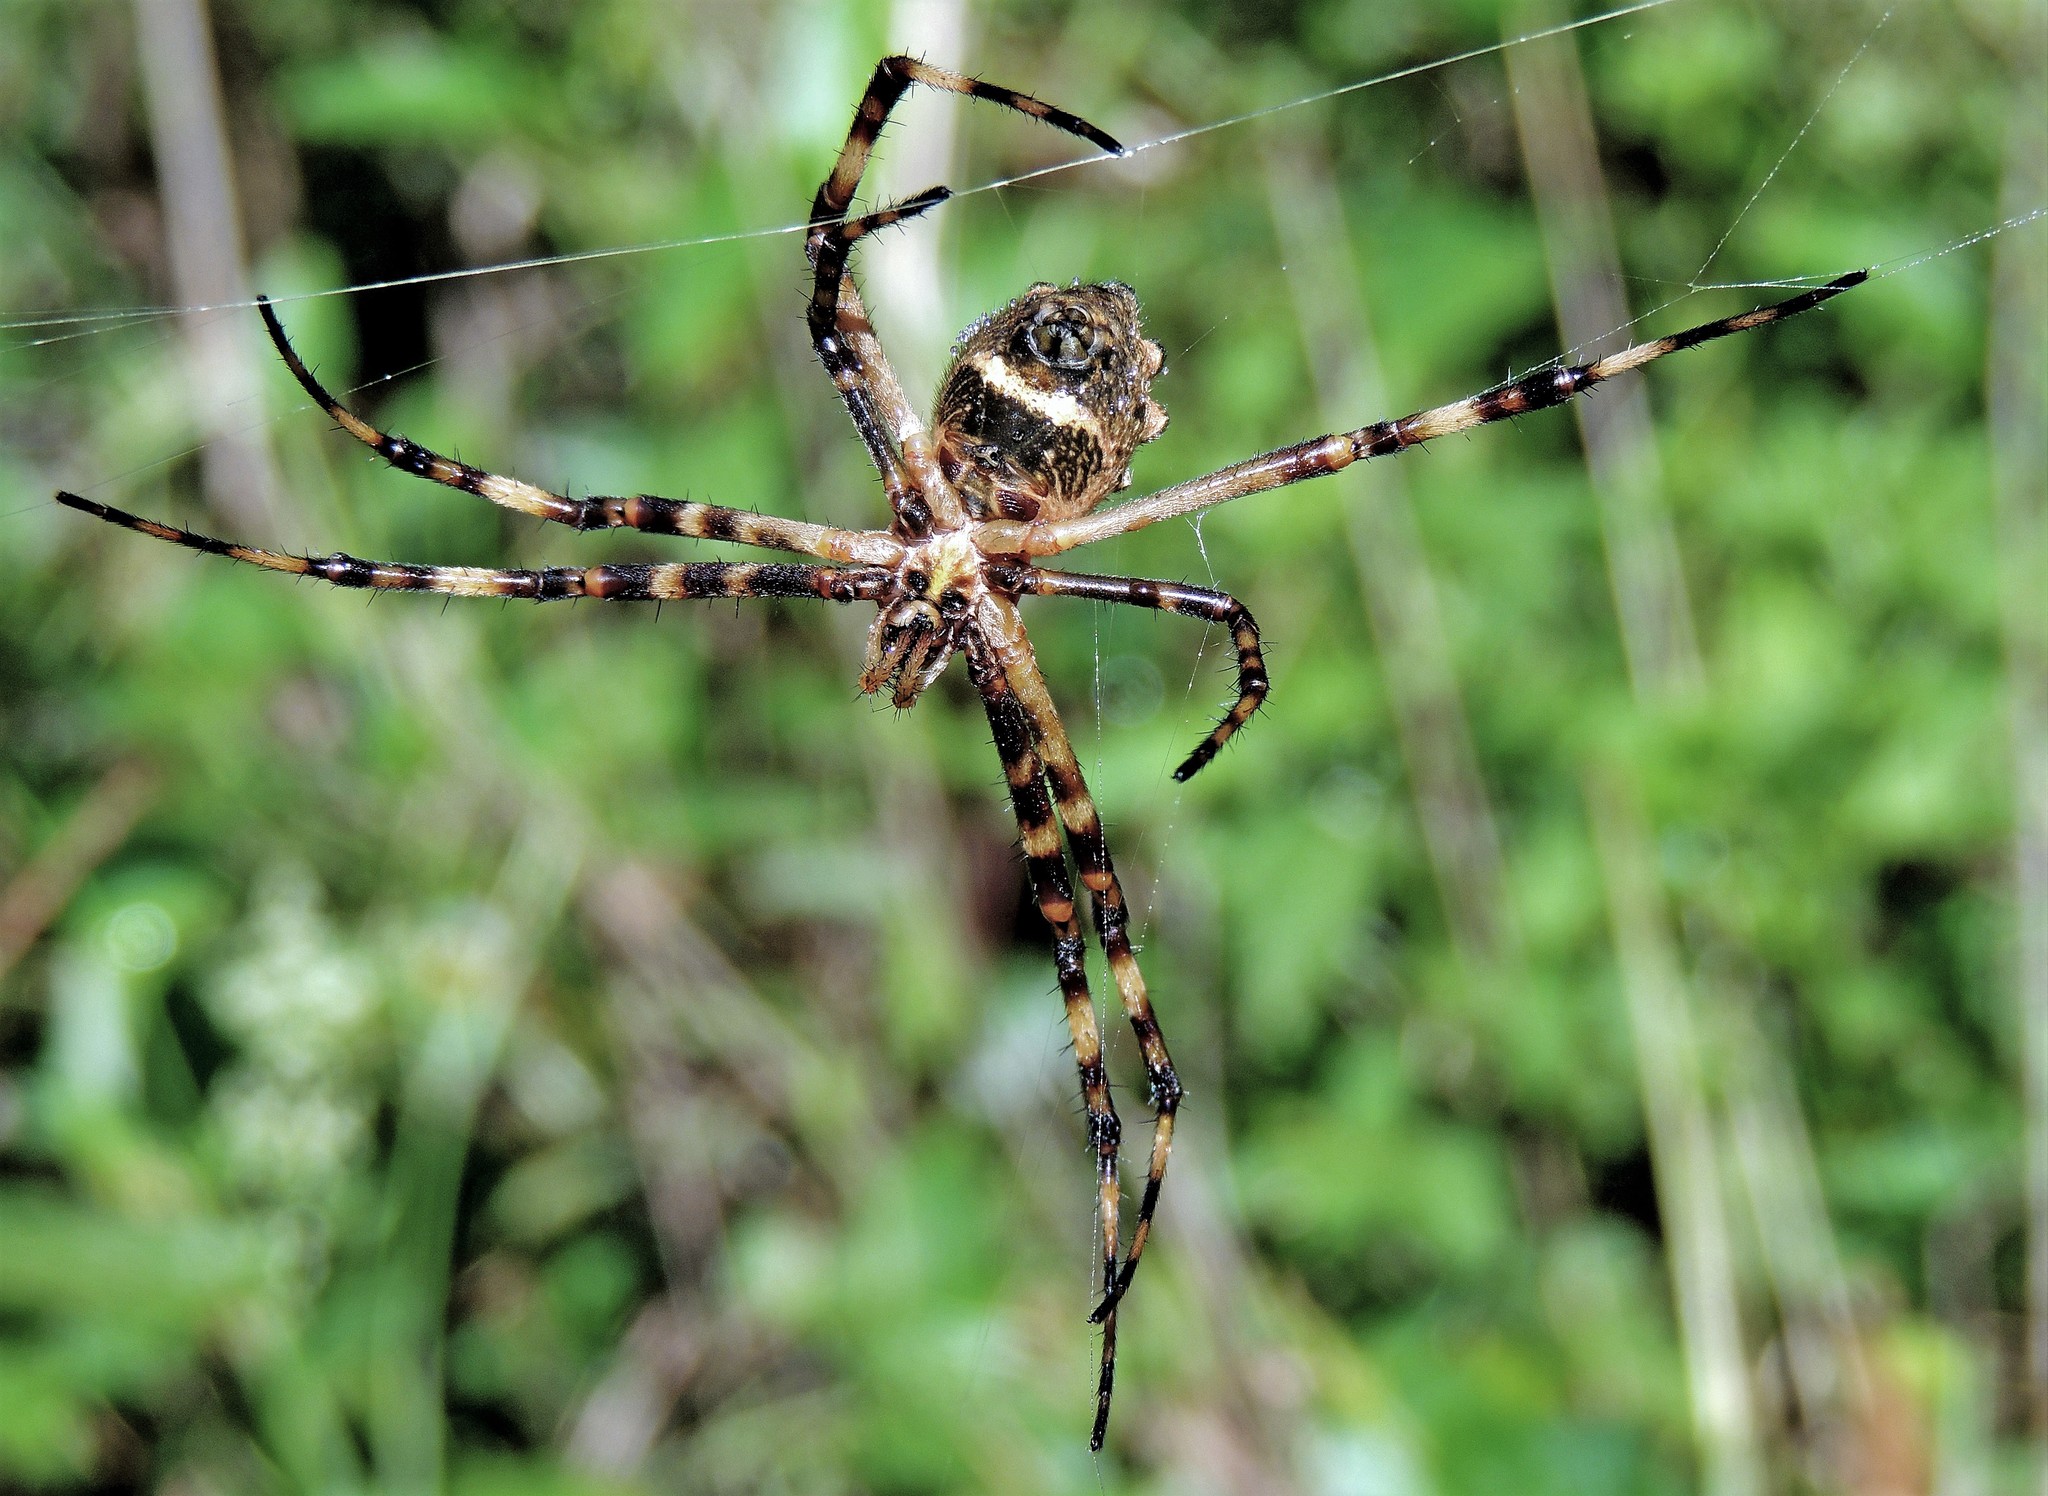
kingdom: Animalia
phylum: Arthropoda
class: Arachnida
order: Araneae
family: Araneidae
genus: Argiope
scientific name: Argiope argentata
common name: Orb weavers
